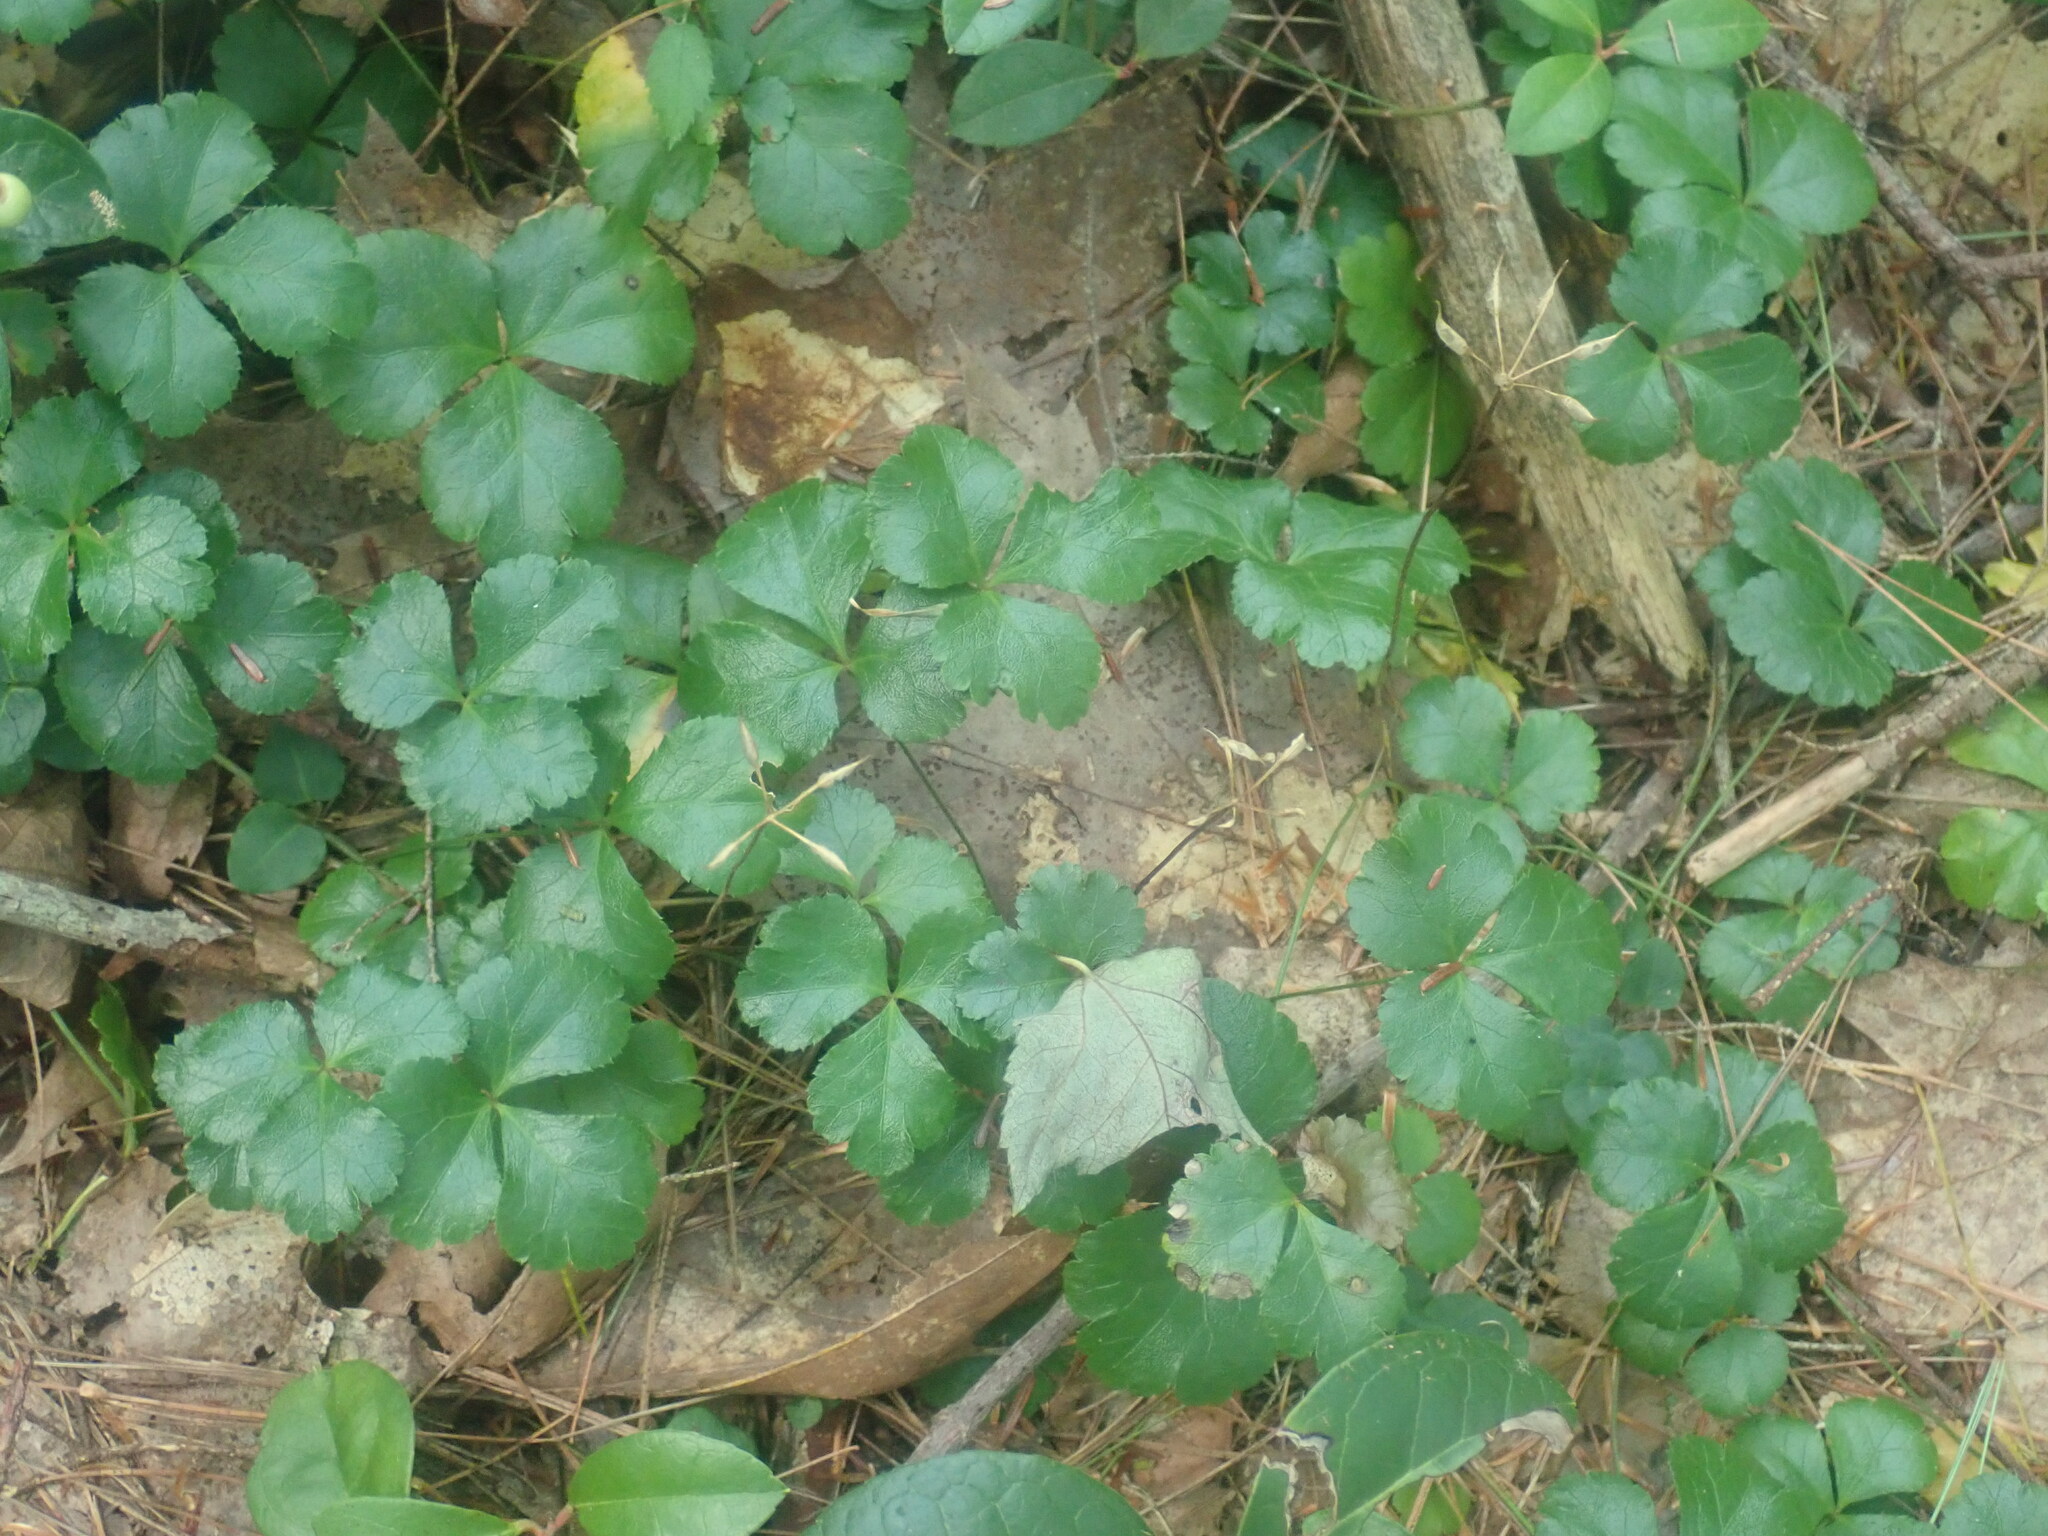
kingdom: Plantae
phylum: Tracheophyta
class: Magnoliopsida
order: Ranunculales
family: Ranunculaceae
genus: Coptis
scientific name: Coptis trifolia
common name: Canker-root
